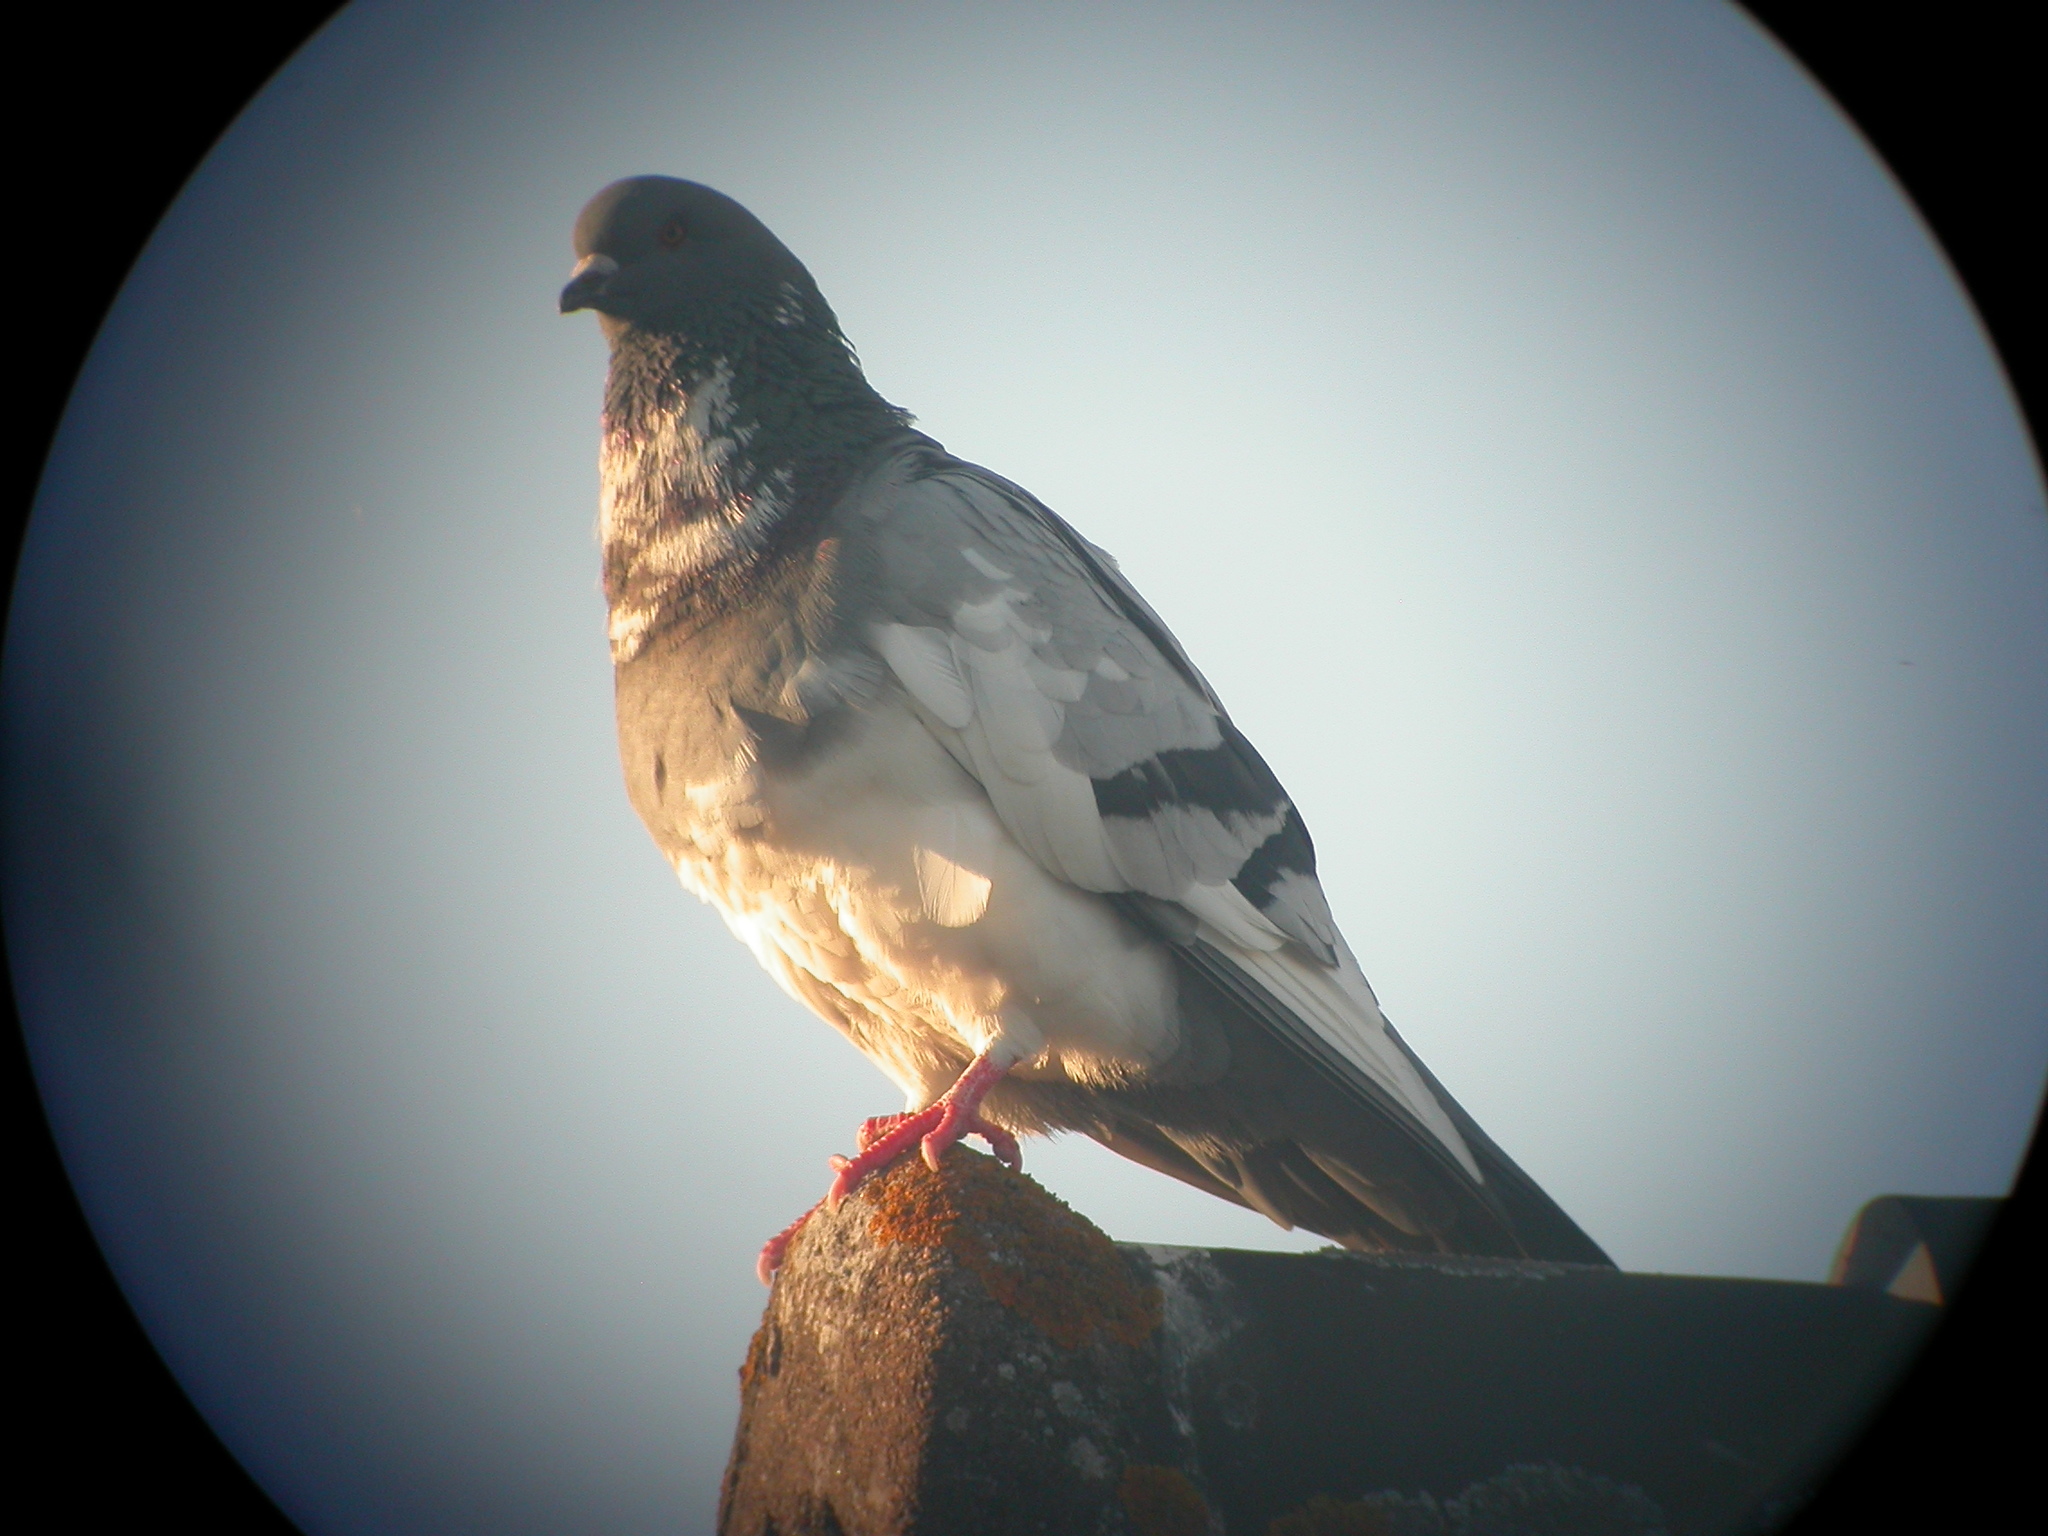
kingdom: Animalia
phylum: Chordata
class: Aves
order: Columbiformes
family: Columbidae
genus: Columba
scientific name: Columba livia
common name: Rock pigeon
